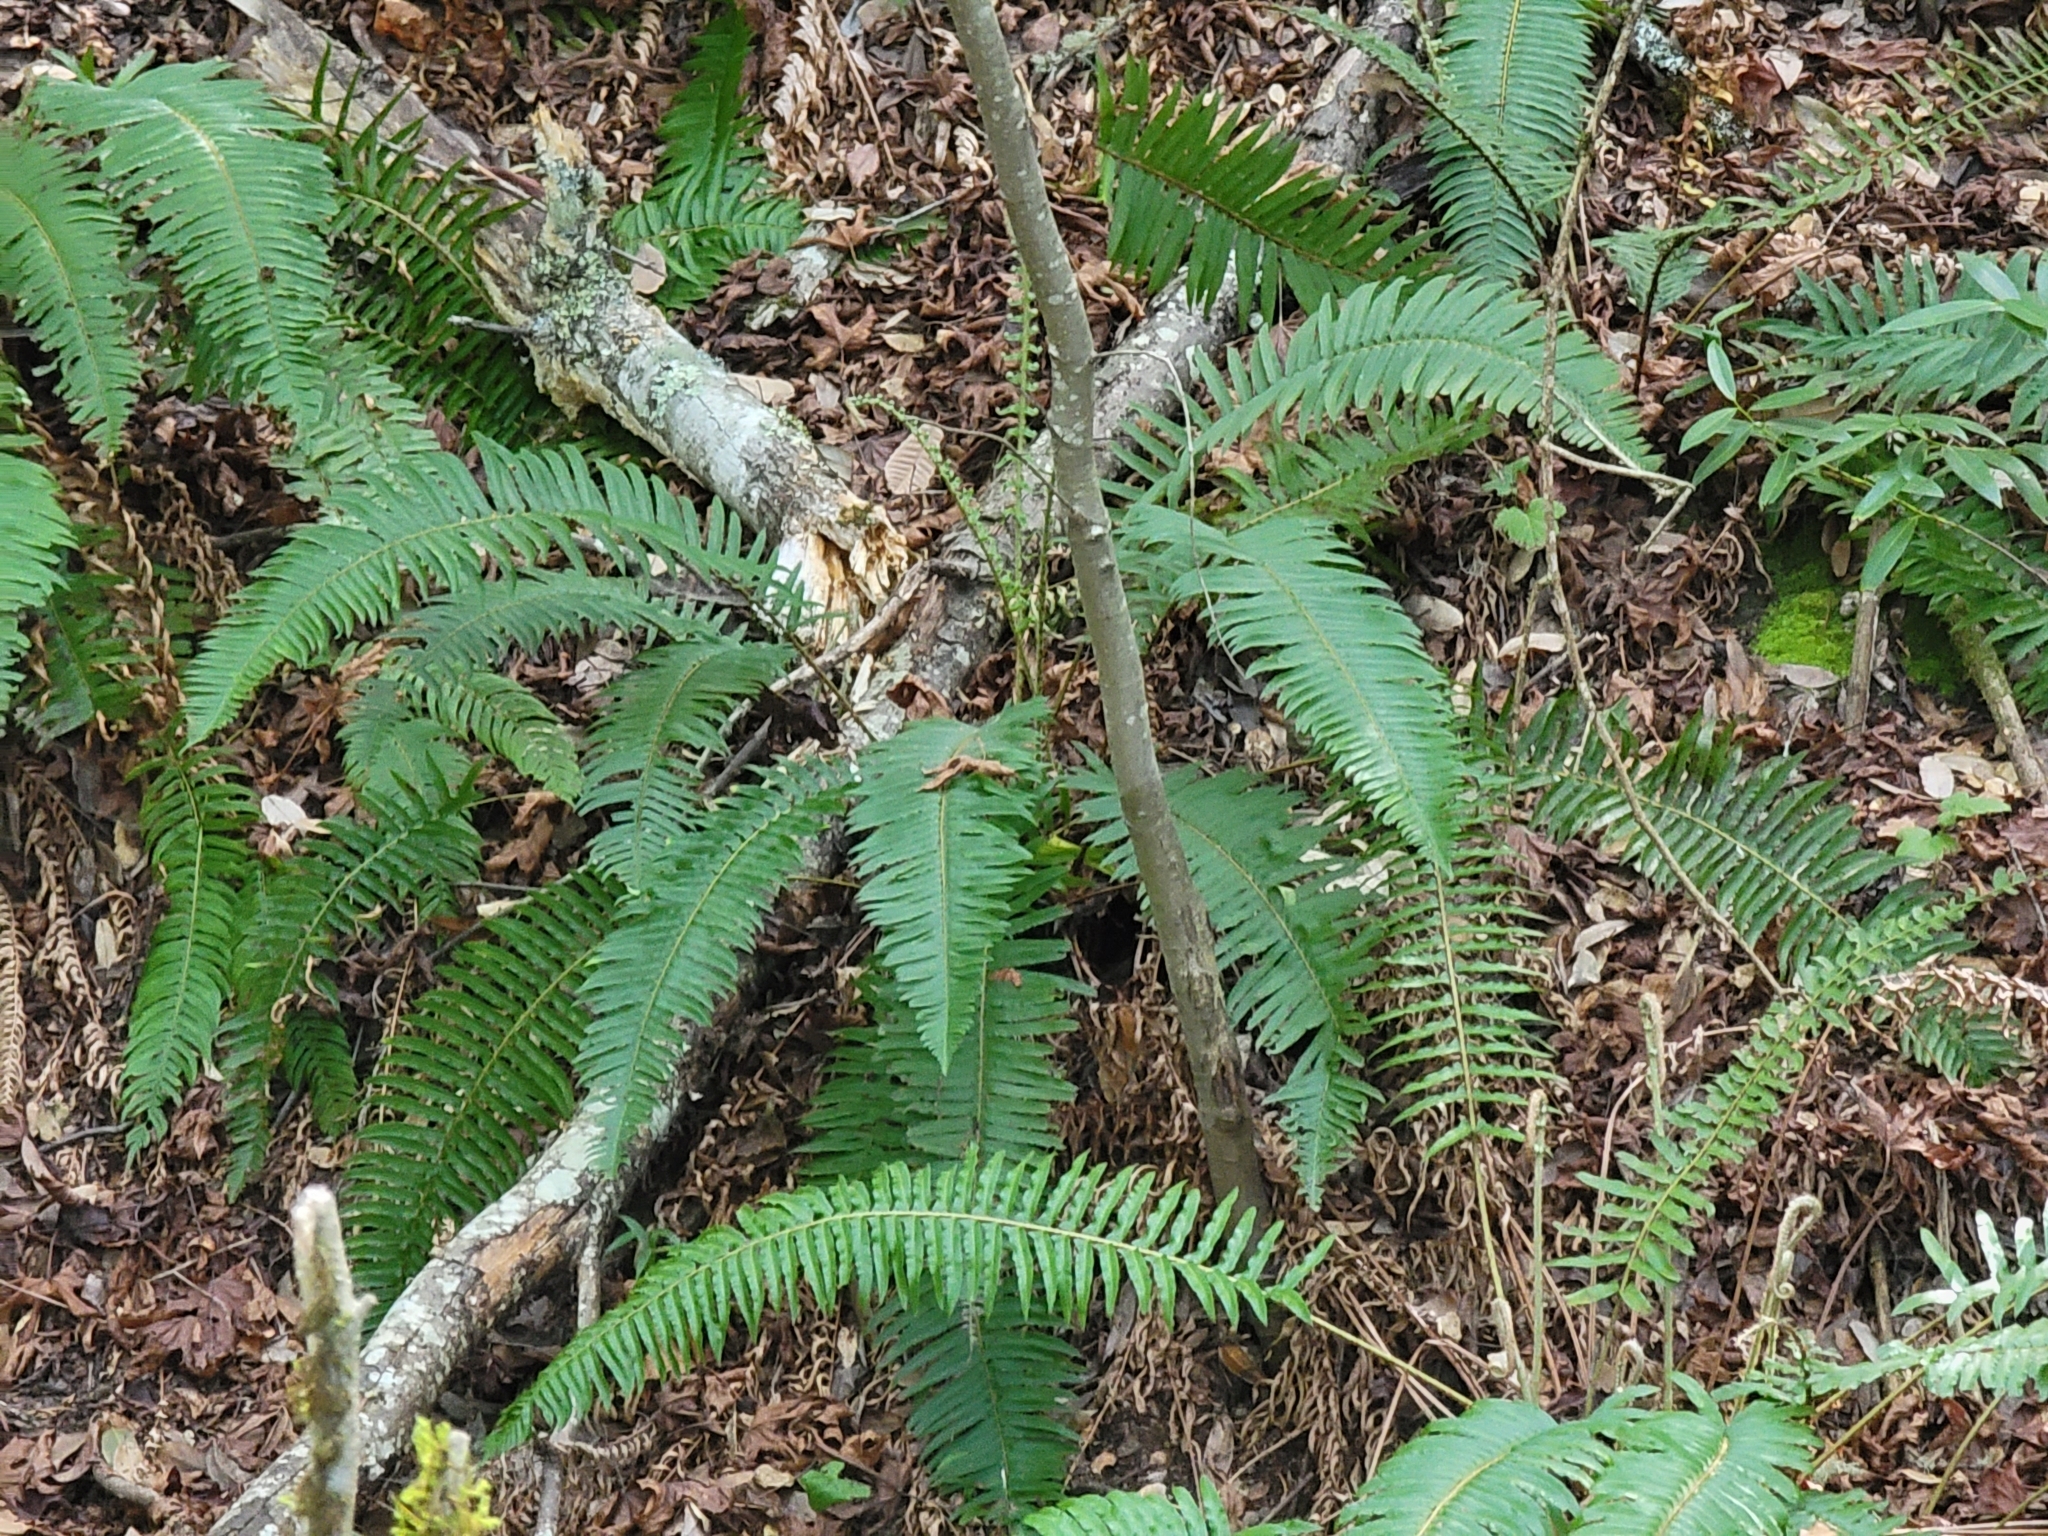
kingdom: Plantae
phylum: Tracheophyta
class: Polypodiopsida
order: Polypodiales
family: Dryopteridaceae
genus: Polystichum
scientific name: Polystichum munitum
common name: Western sword-fern
